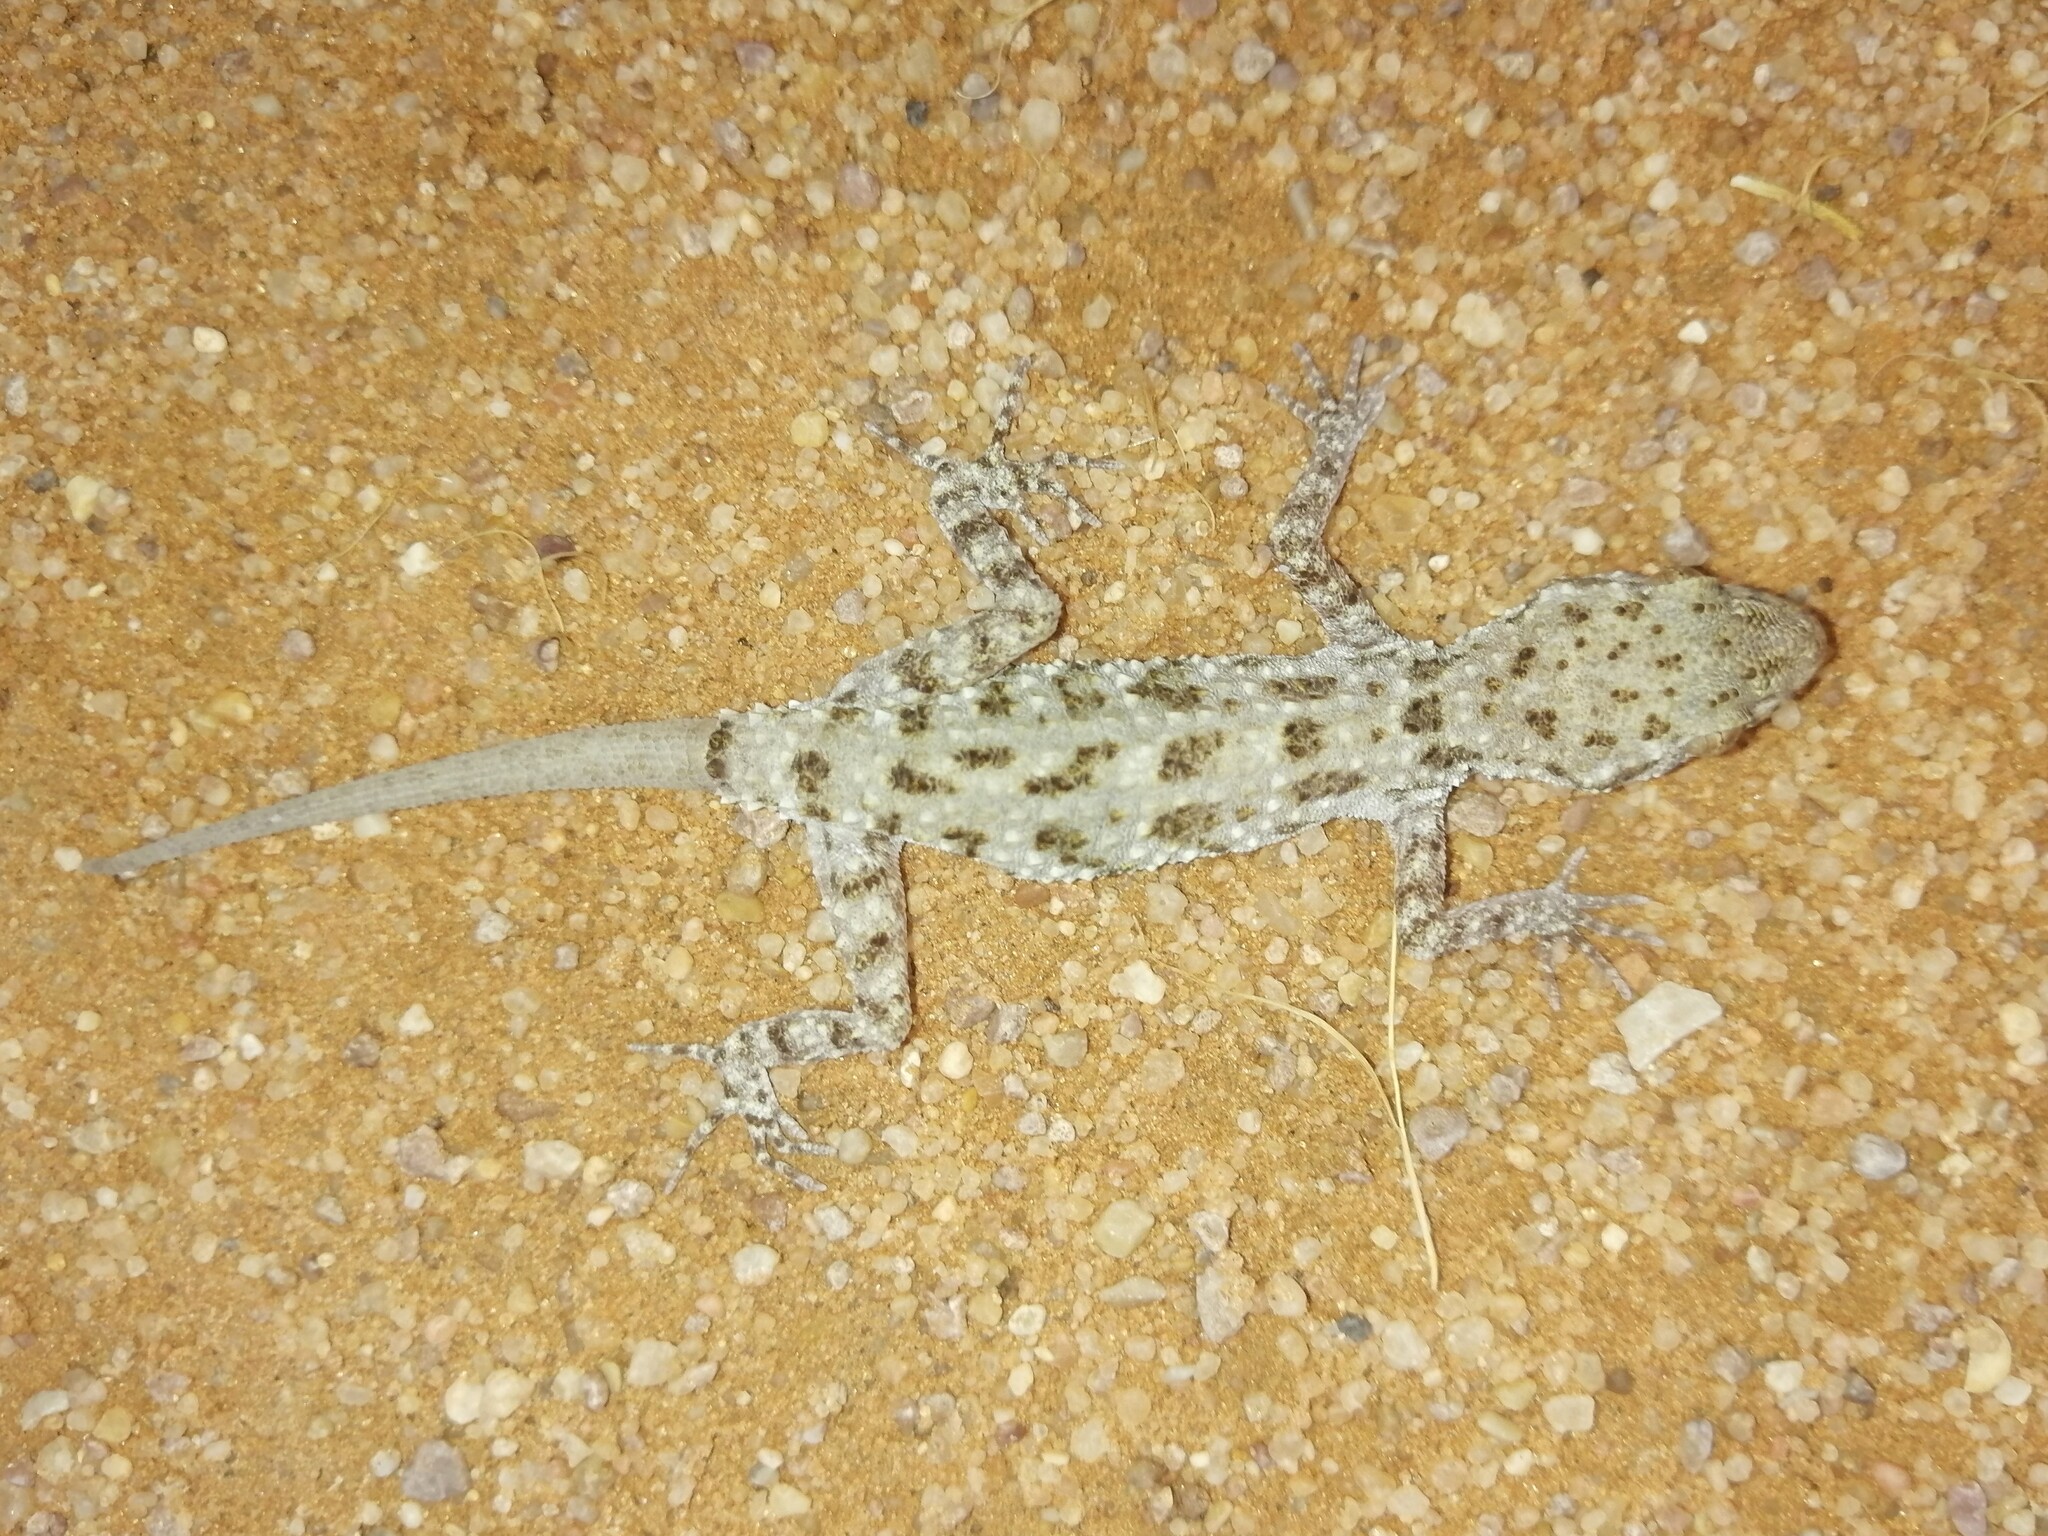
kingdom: Animalia
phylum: Chordata
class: Squamata
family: Gekkonidae
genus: Bunopus
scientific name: Bunopus tuberculatus
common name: Southern tuberculated gecko
